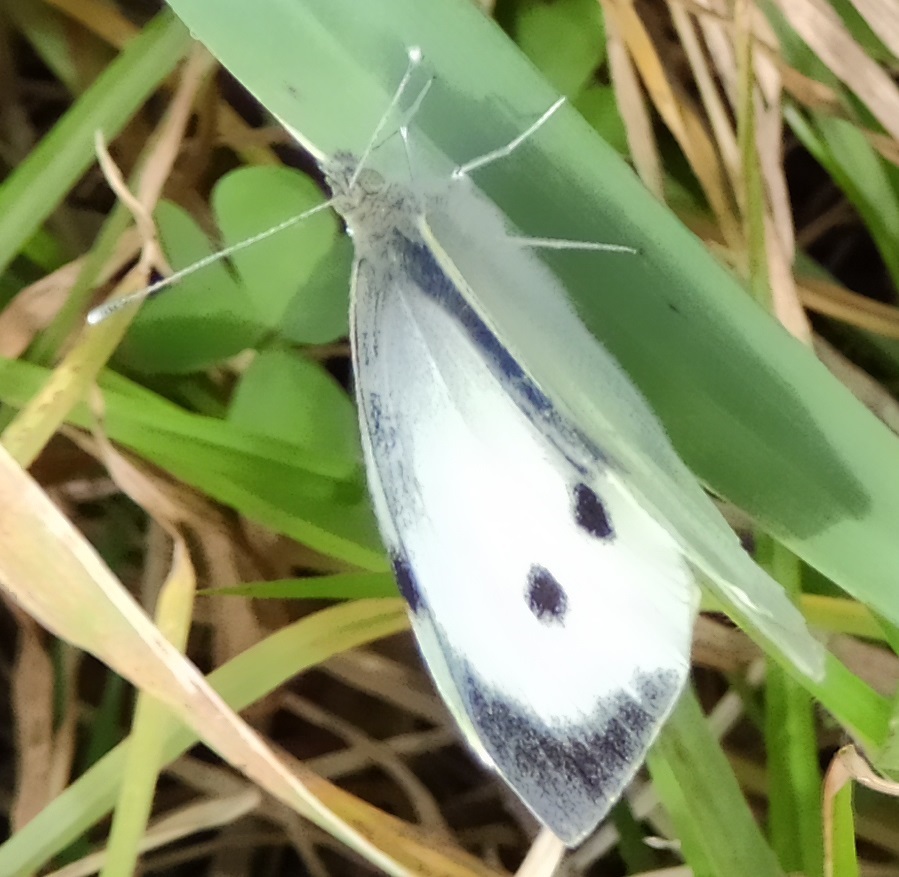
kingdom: Animalia
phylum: Arthropoda
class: Insecta
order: Lepidoptera
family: Pieridae
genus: Pieris
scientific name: Pieris brassicae
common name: Large white
